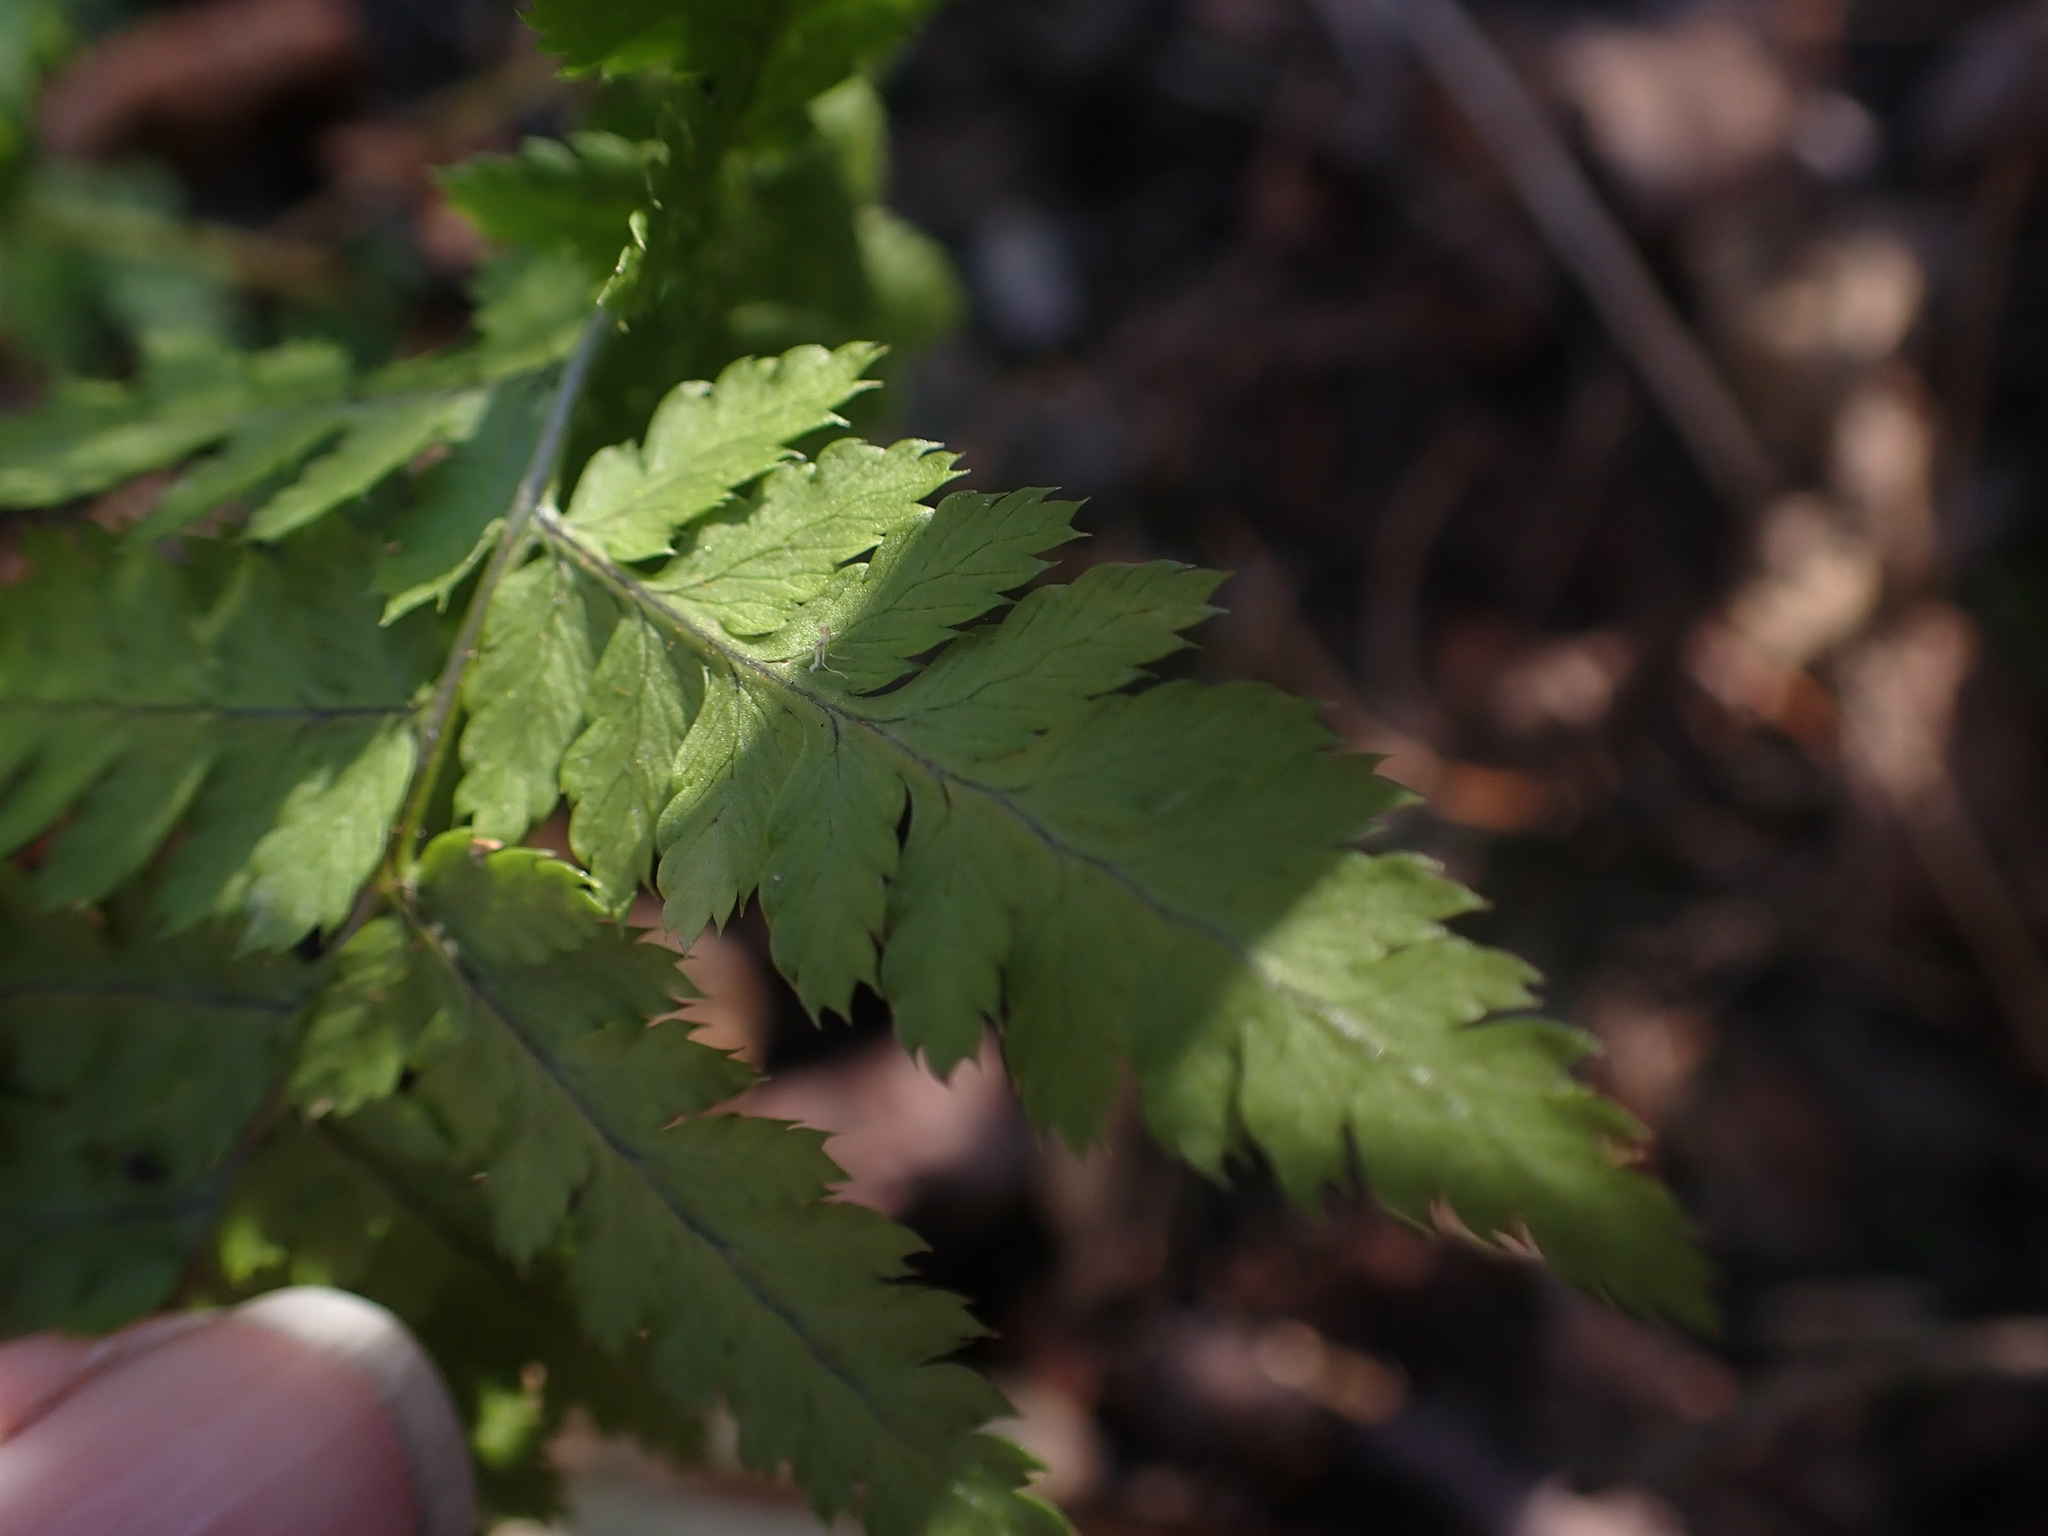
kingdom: Plantae
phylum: Tracheophyta
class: Polypodiopsida
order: Polypodiales
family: Dryopteridaceae
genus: Dryopteris
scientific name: Dryopteris carthusiana
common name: Narrow buckler-fern
